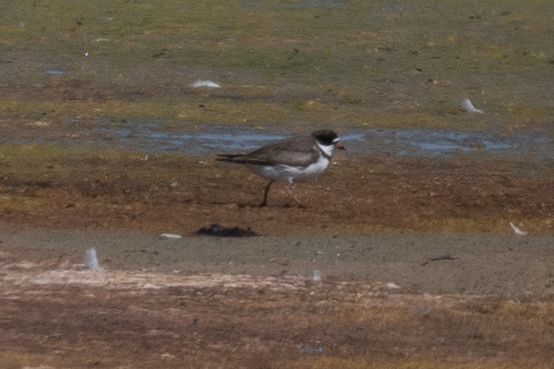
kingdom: Animalia
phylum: Chordata
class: Aves
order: Charadriiformes
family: Charadriidae
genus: Charadrius
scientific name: Charadrius semipalmatus
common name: Semipalmated plover
